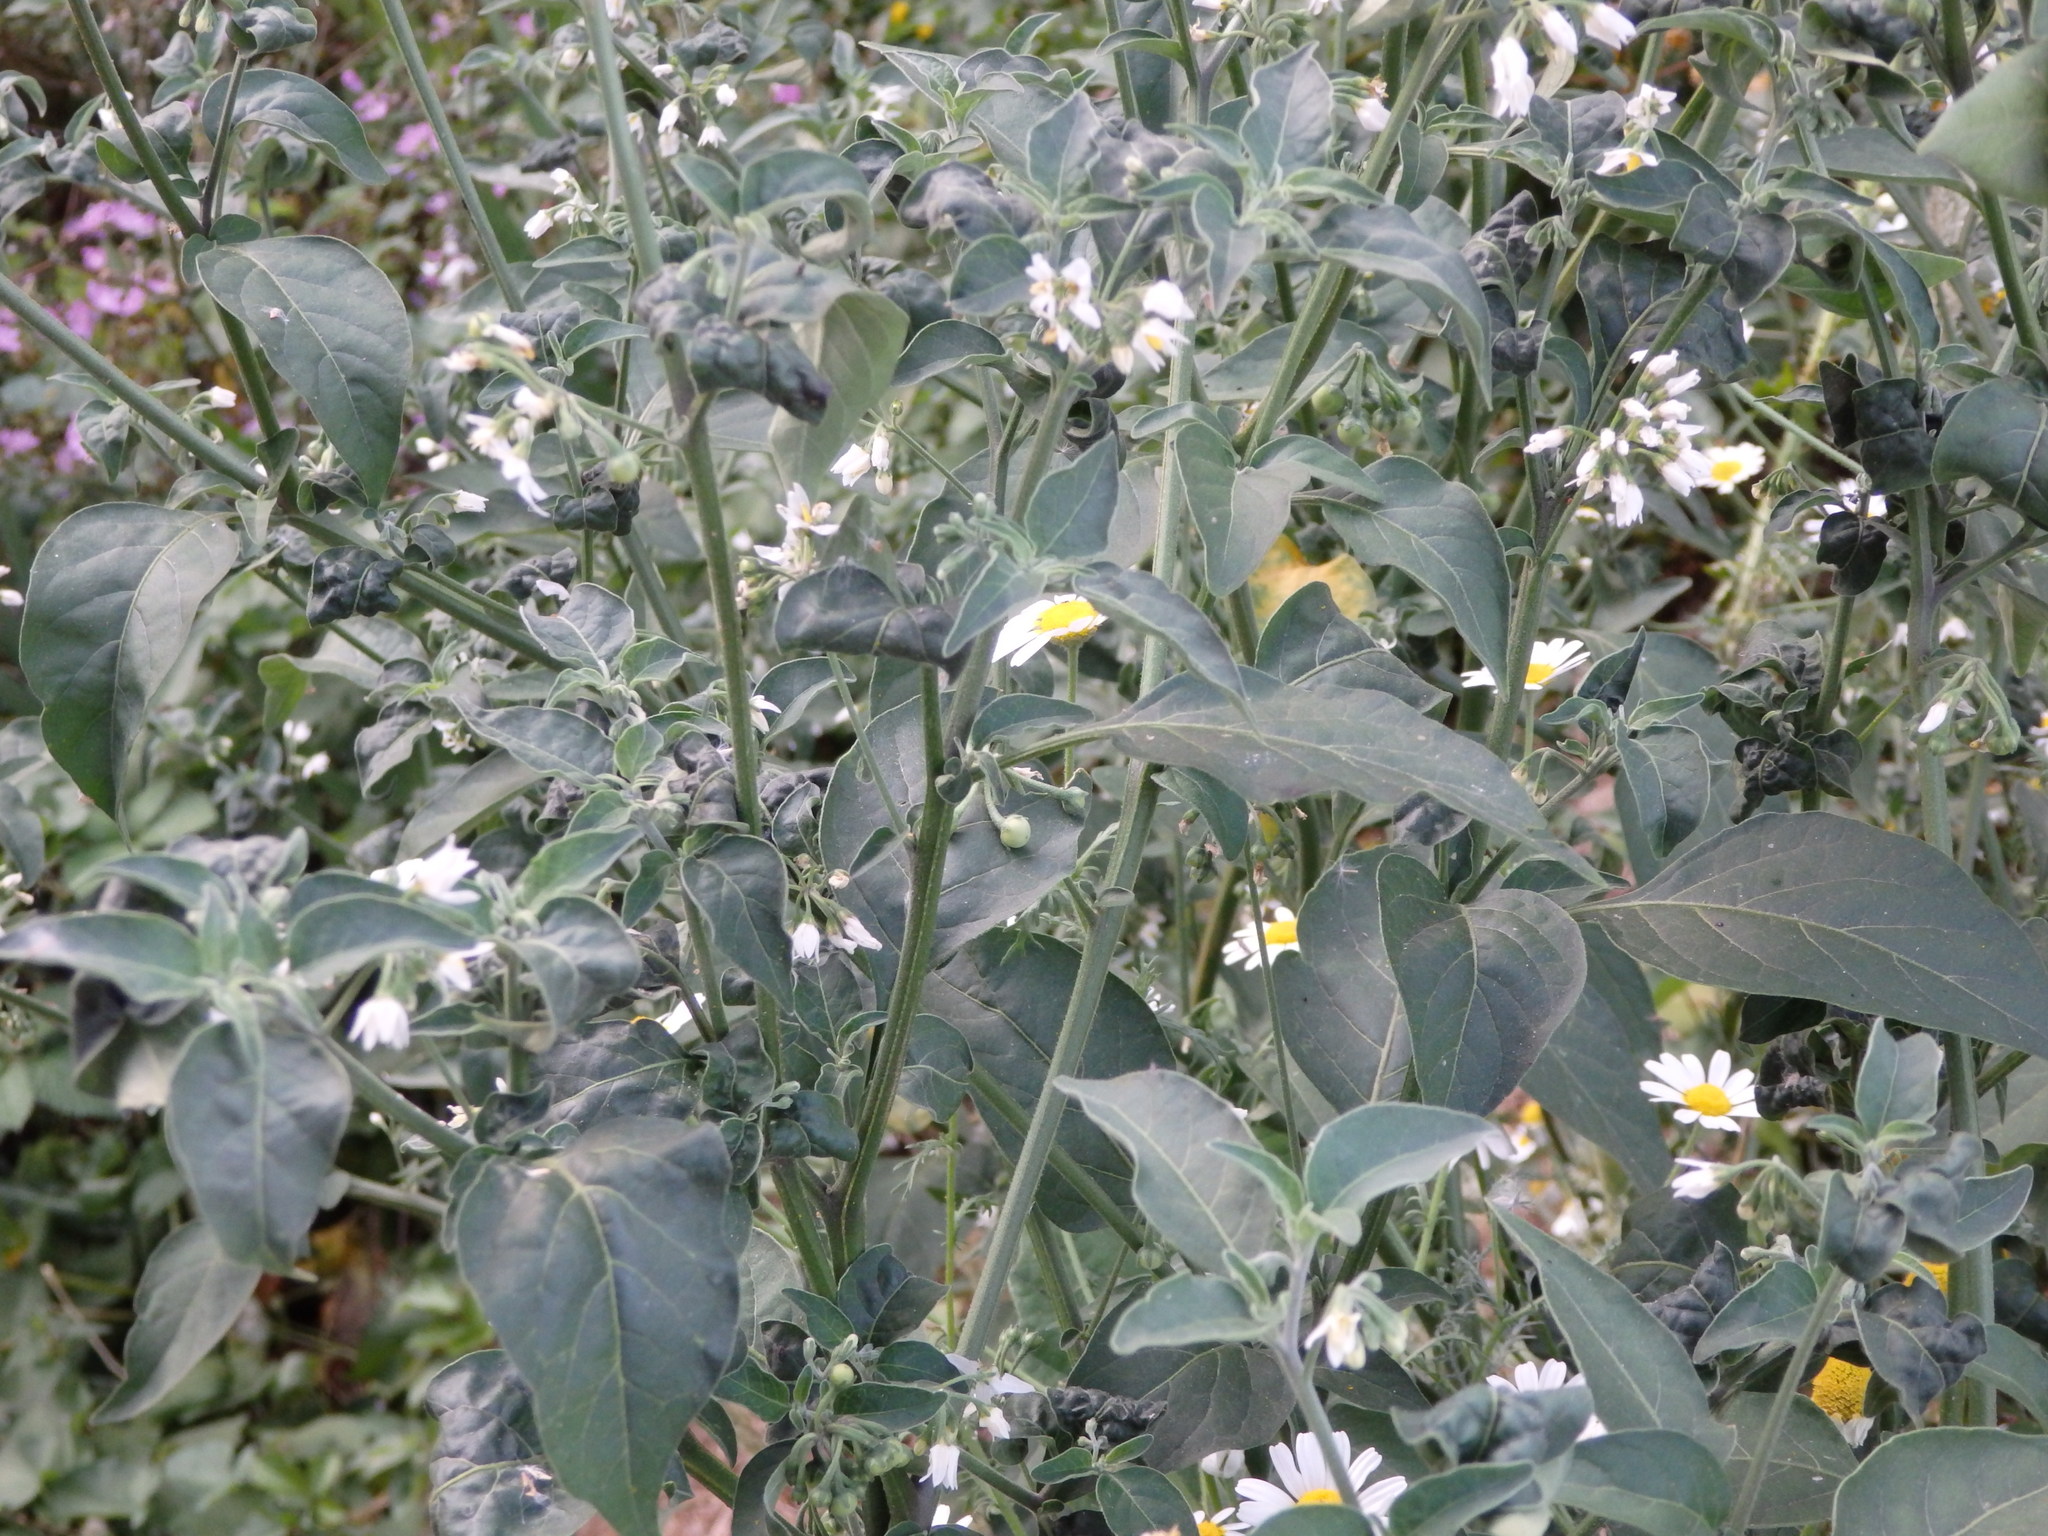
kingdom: Plantae
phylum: Tracheophyta
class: Magnoliopsida
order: Solanales
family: Solanaceae
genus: Solanum
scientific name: Solanum chenopodioides
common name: Tall nightshade
